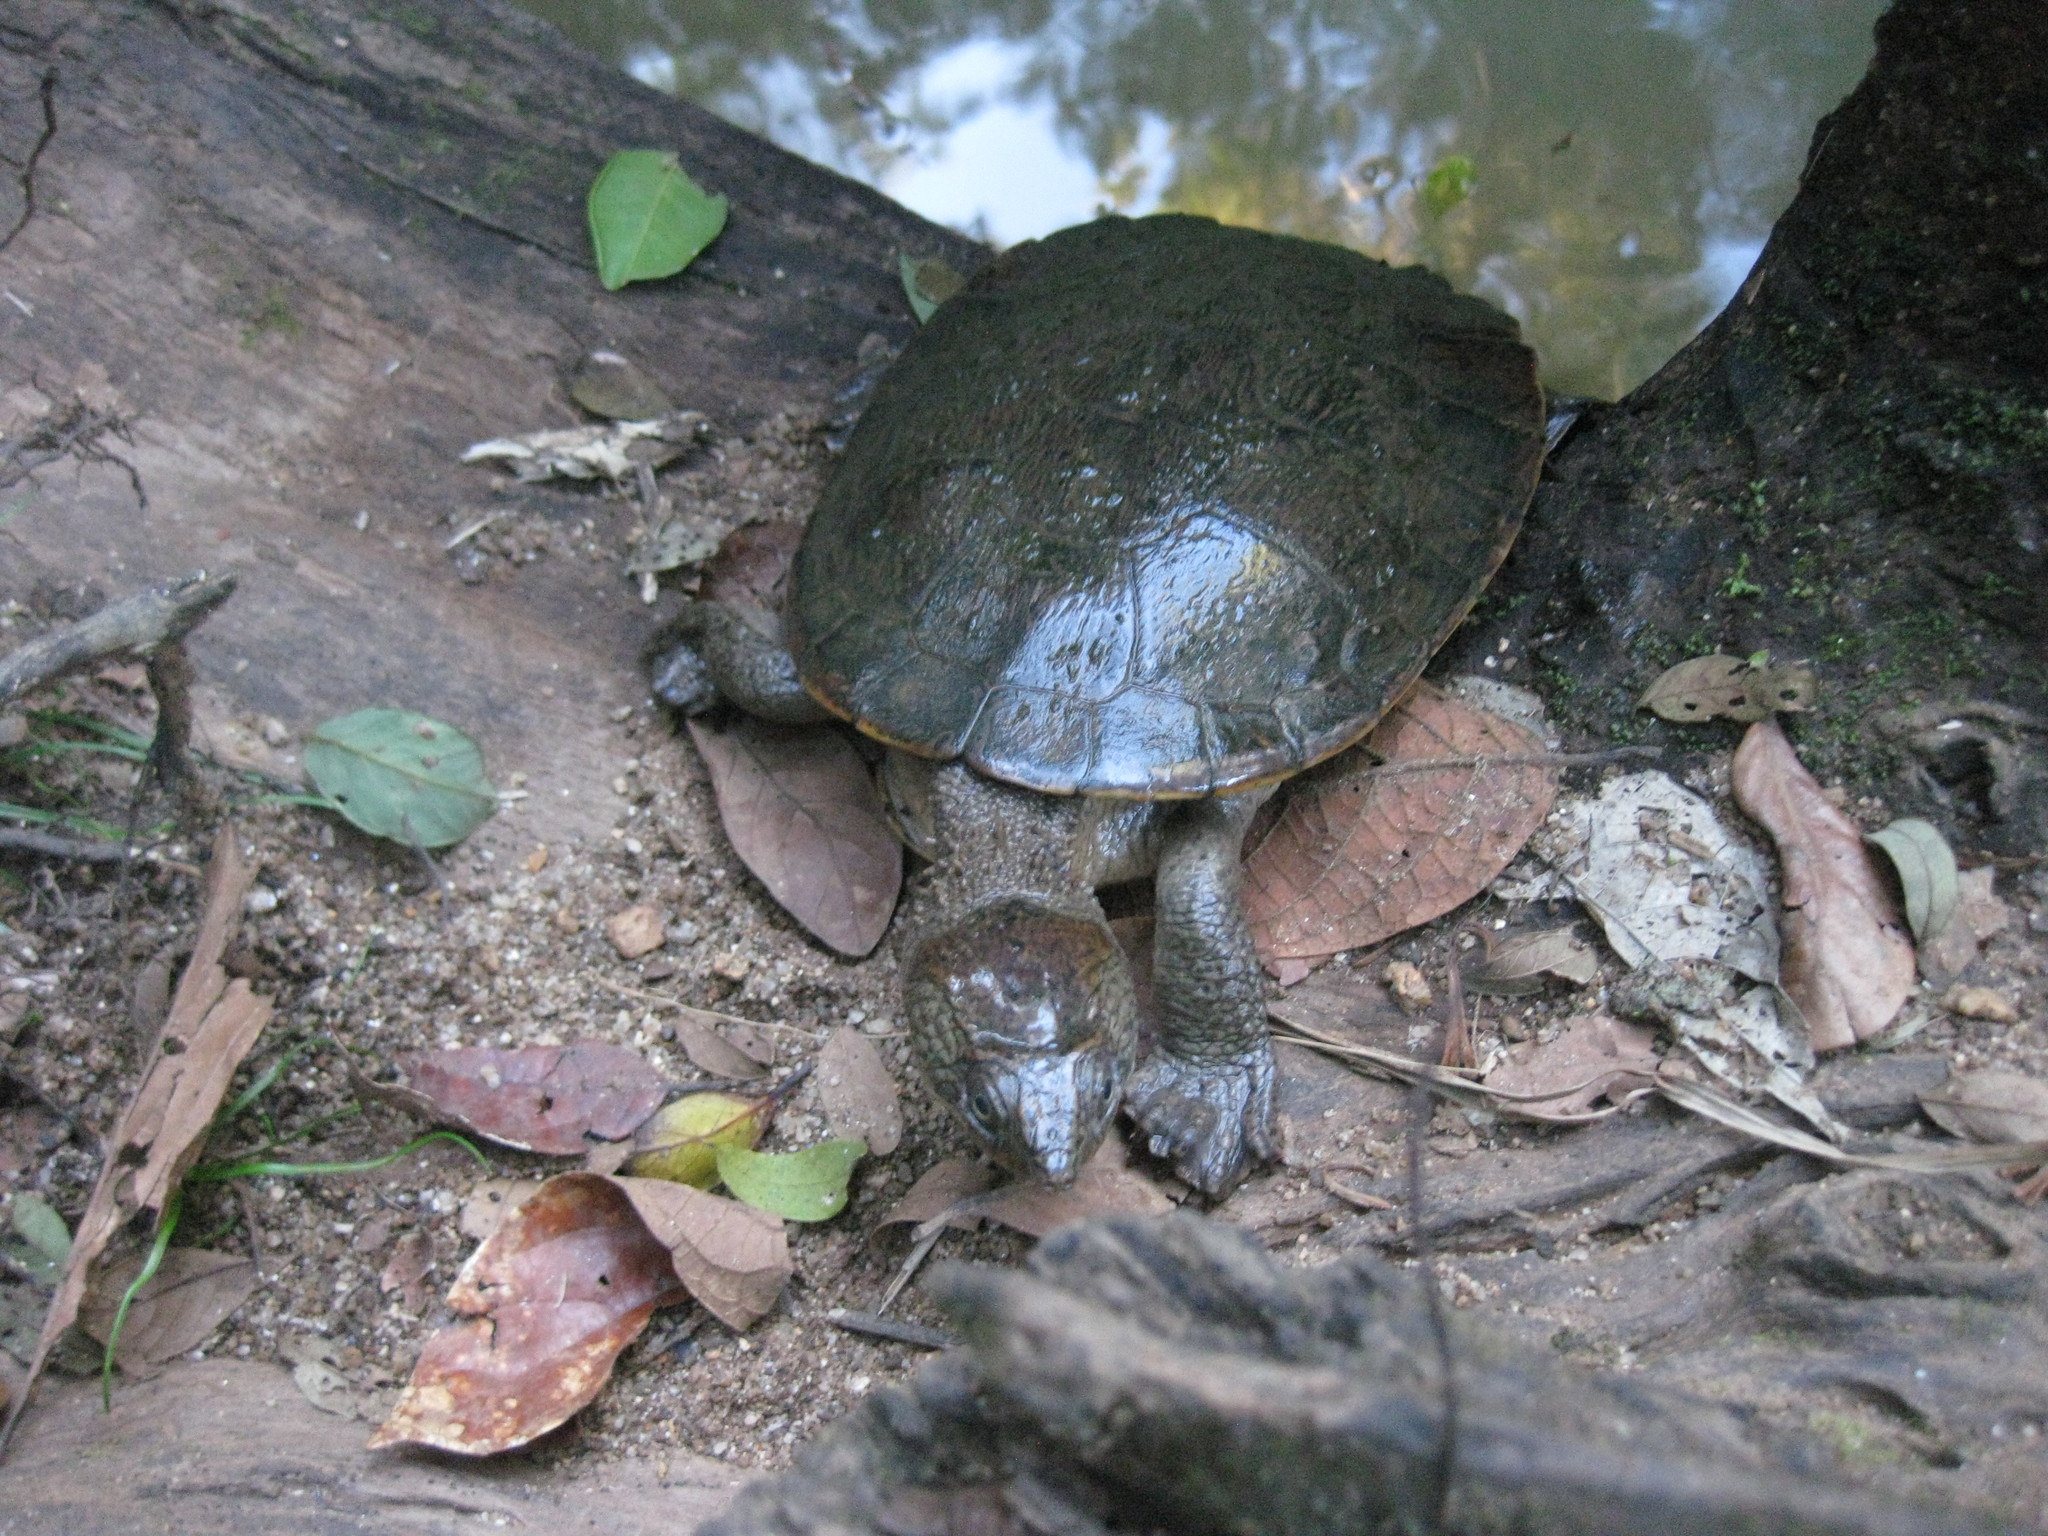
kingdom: Animalia
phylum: Chordata
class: Testudines
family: Chelidae
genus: Myuchelys
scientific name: Myuchelys latisternum
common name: Serrated snapping turtle
